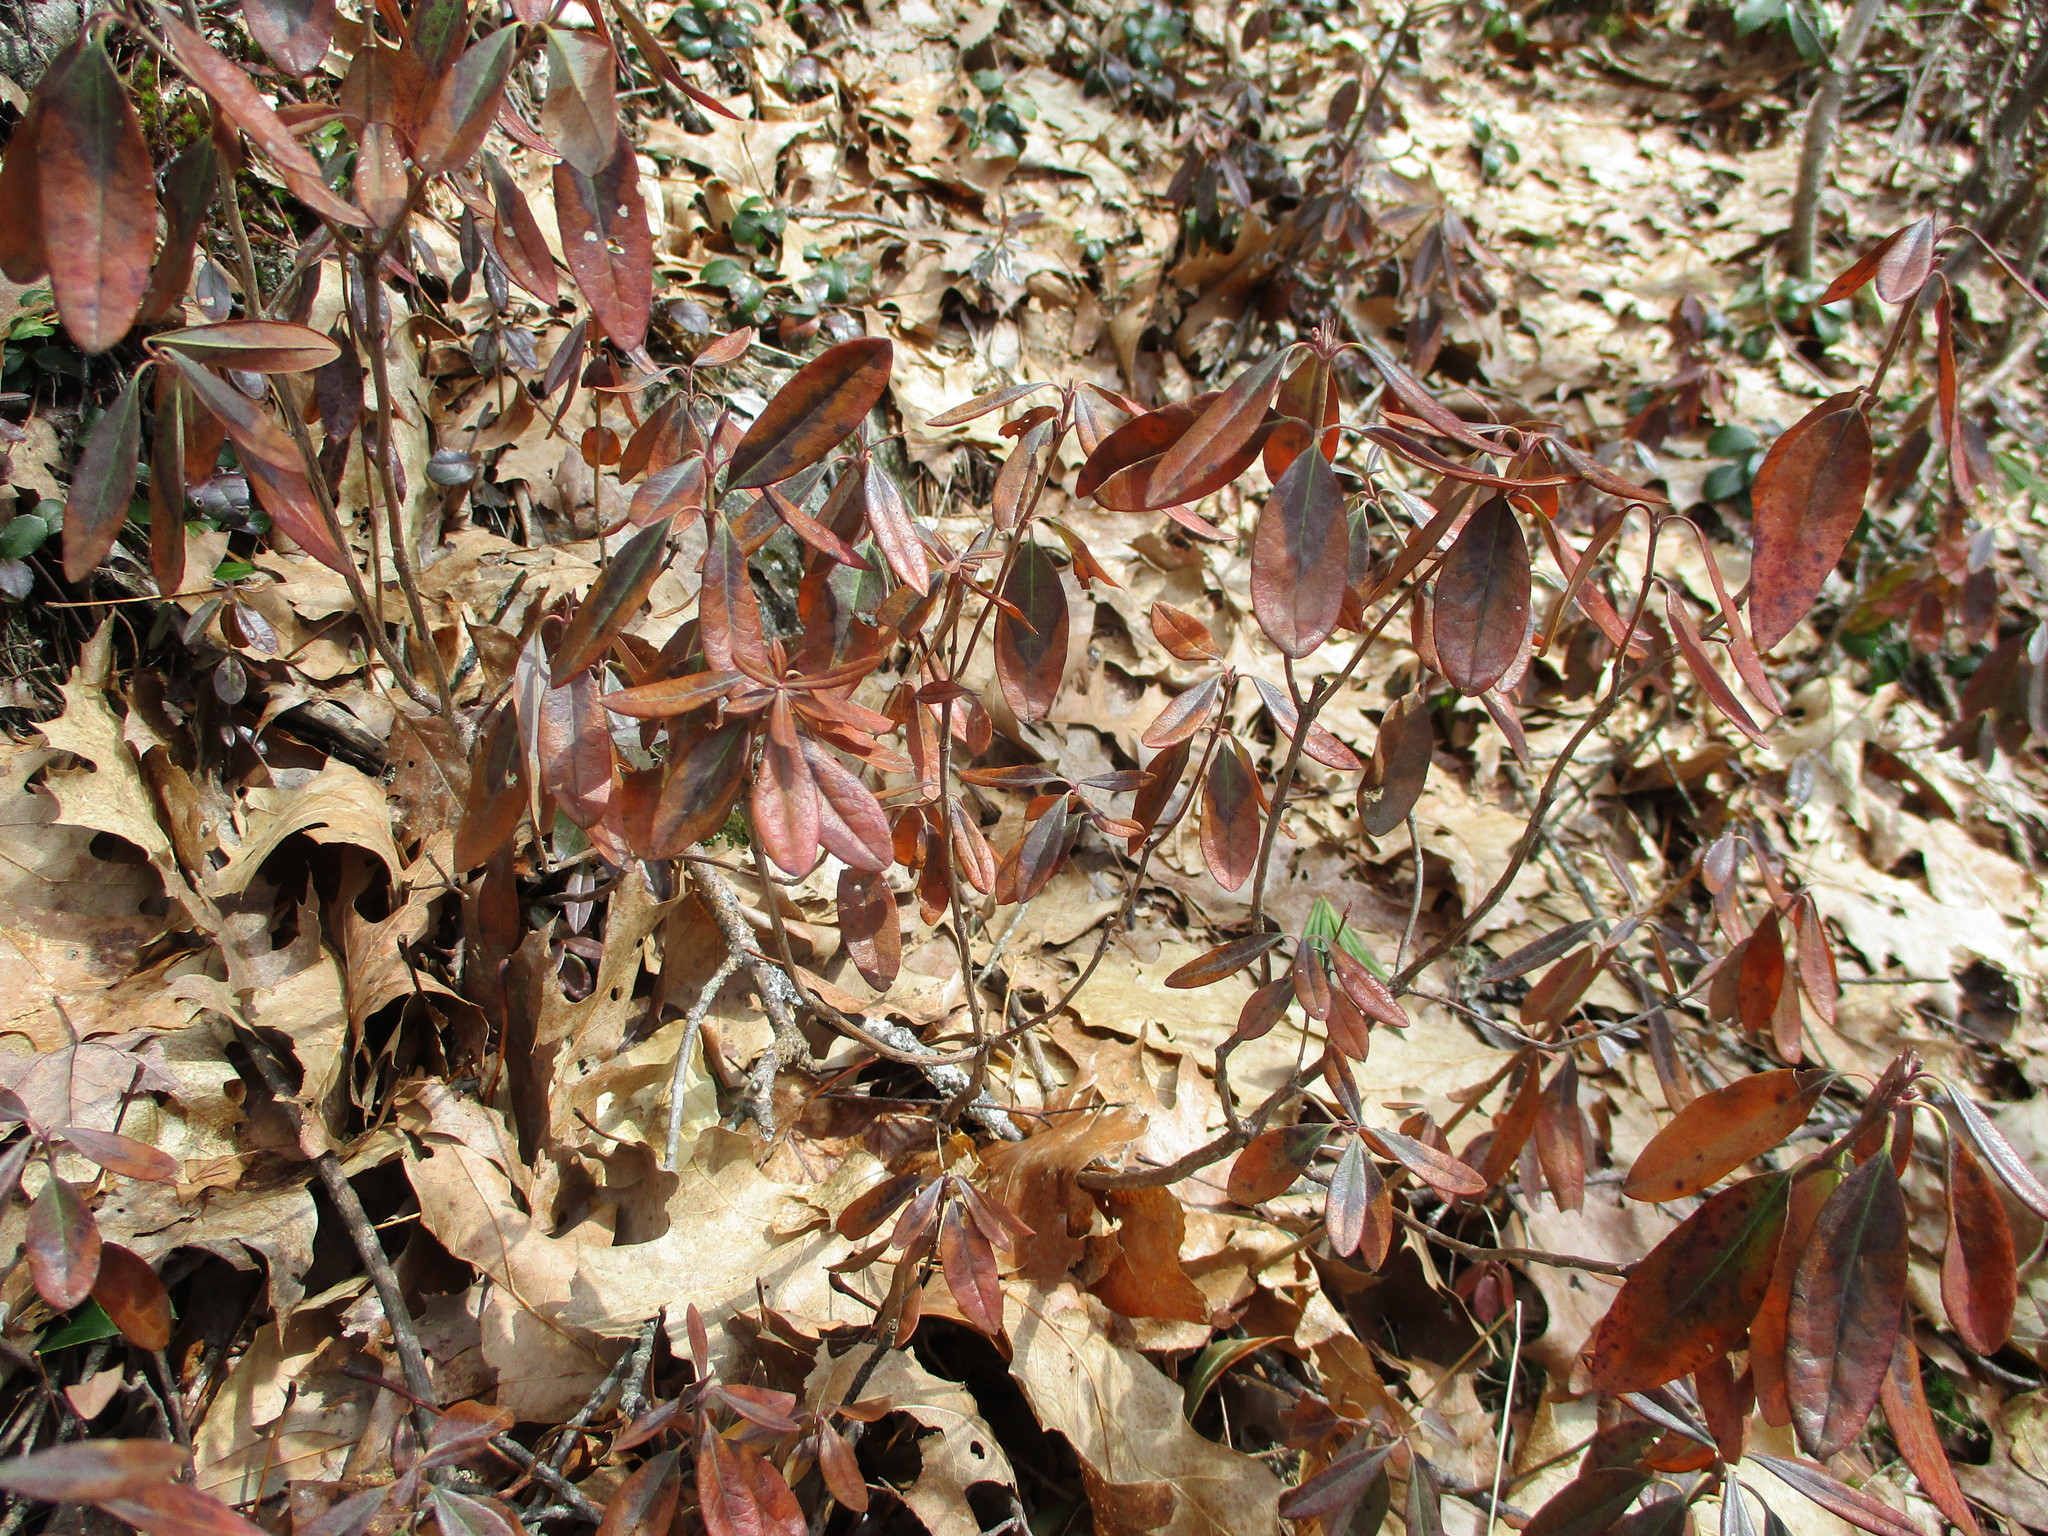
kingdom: Plantae
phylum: Tracheophyta
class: Magnoliopsida
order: Ericales
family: Ericaceae
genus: Kalmia
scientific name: Kalmia angustifolia
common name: Sheep-laurel
